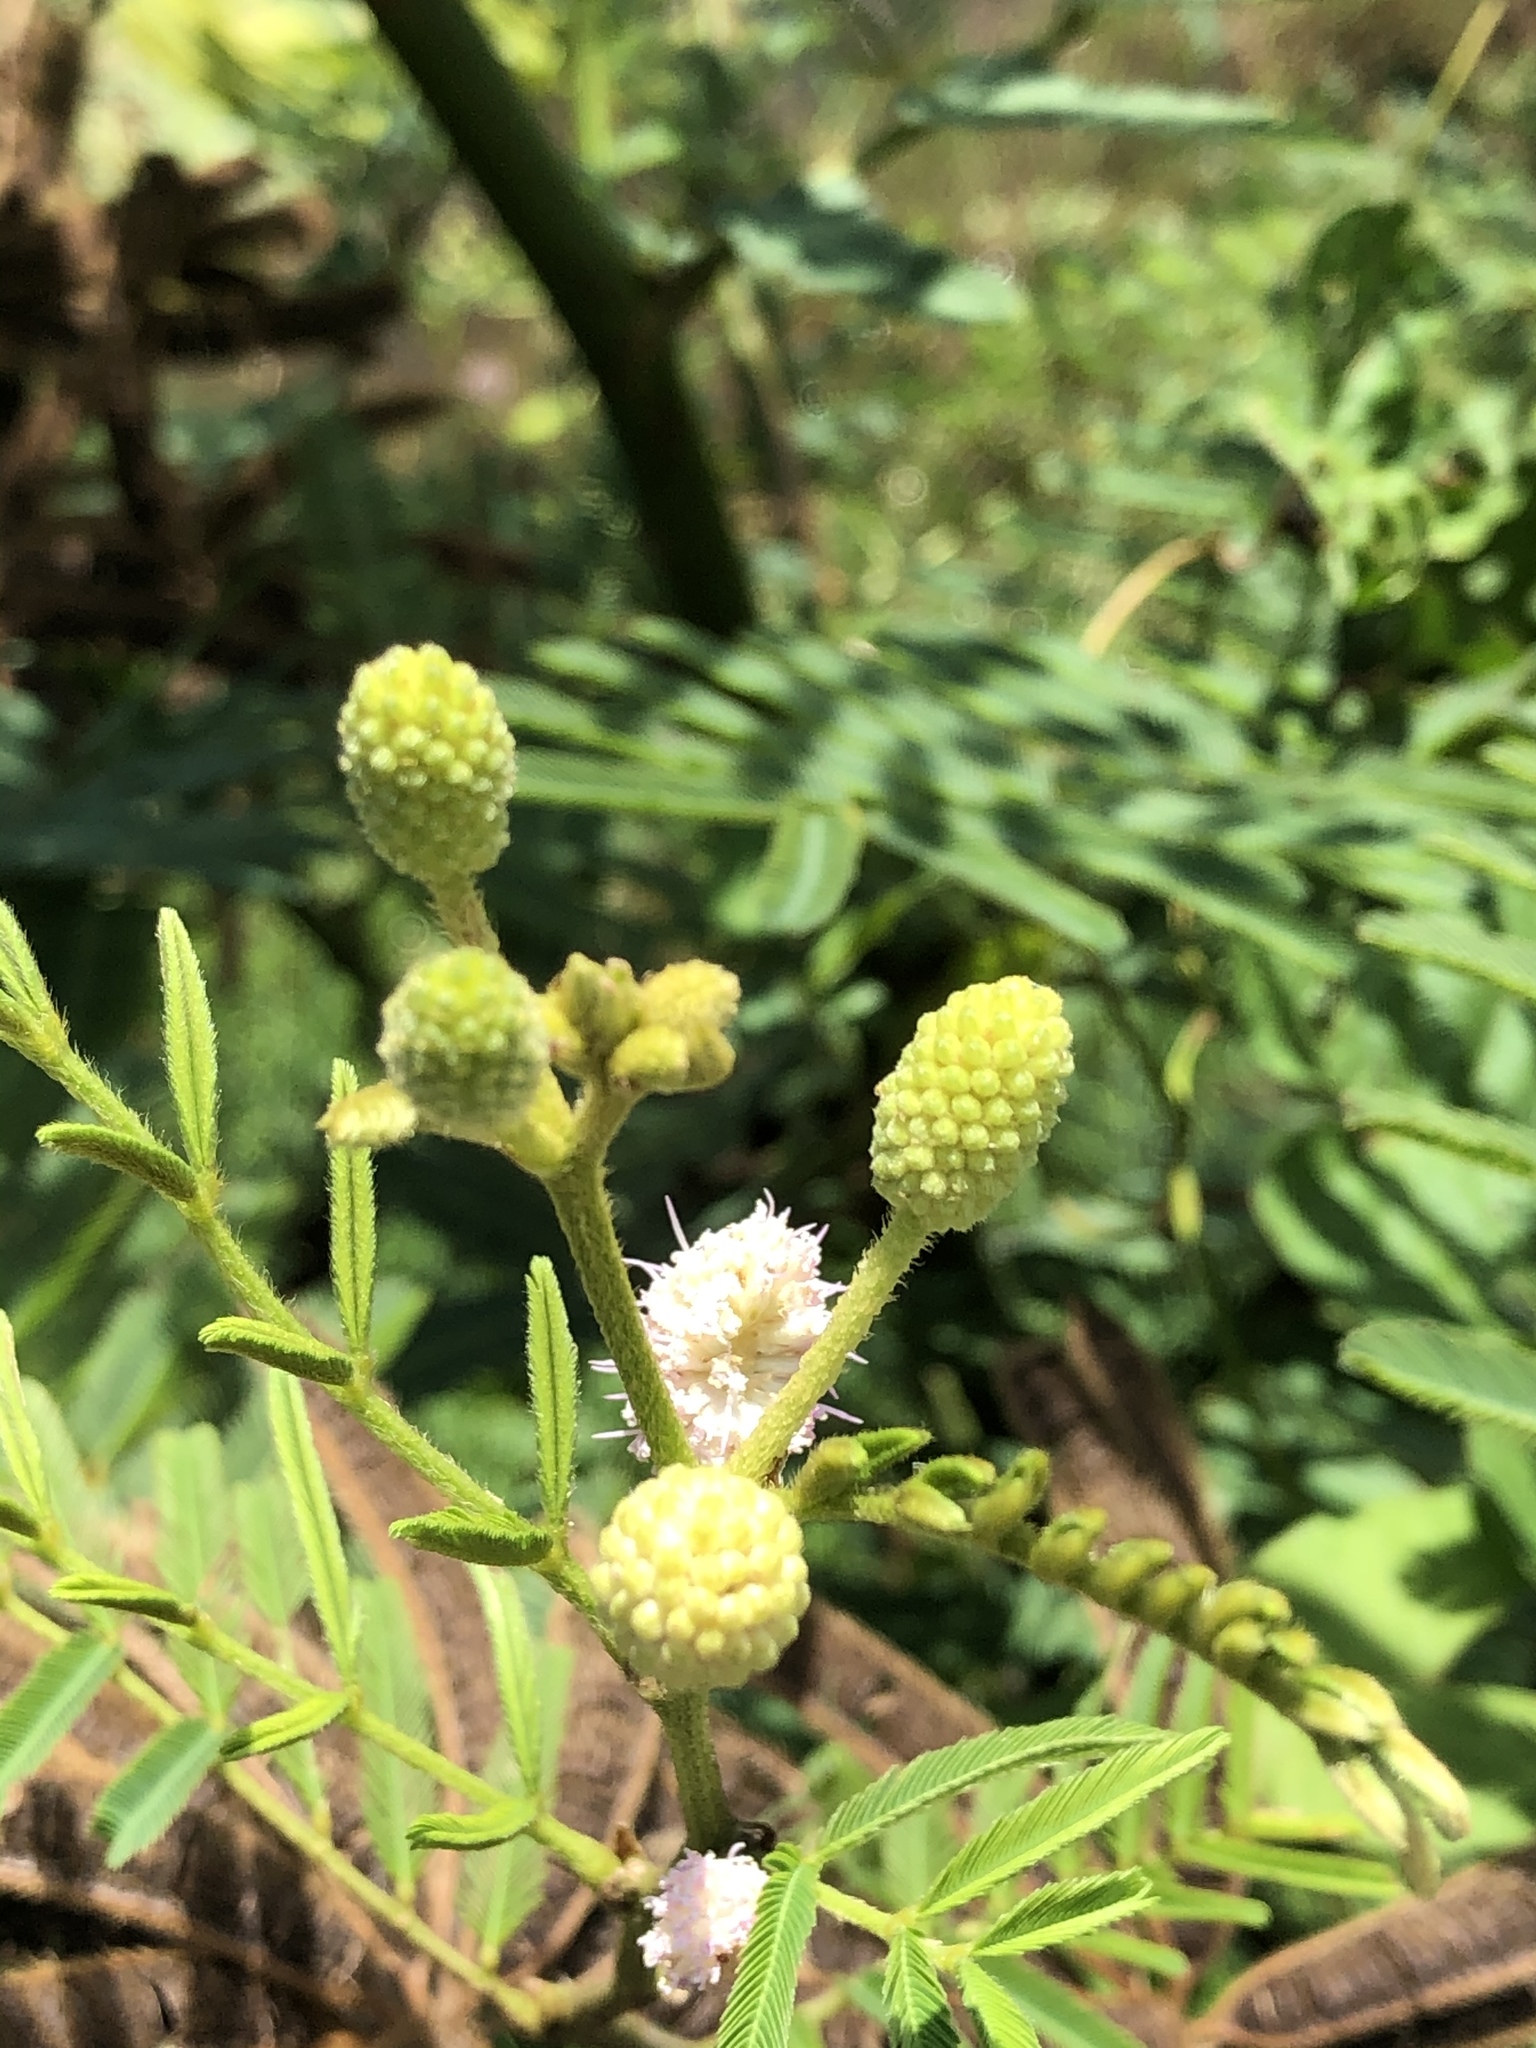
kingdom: Plantae
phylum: Tracheophyta
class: Magnoliopsida
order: Fabales
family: Fabaceae
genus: Mimosa
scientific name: Mimosa pigra
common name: Black mimosa
